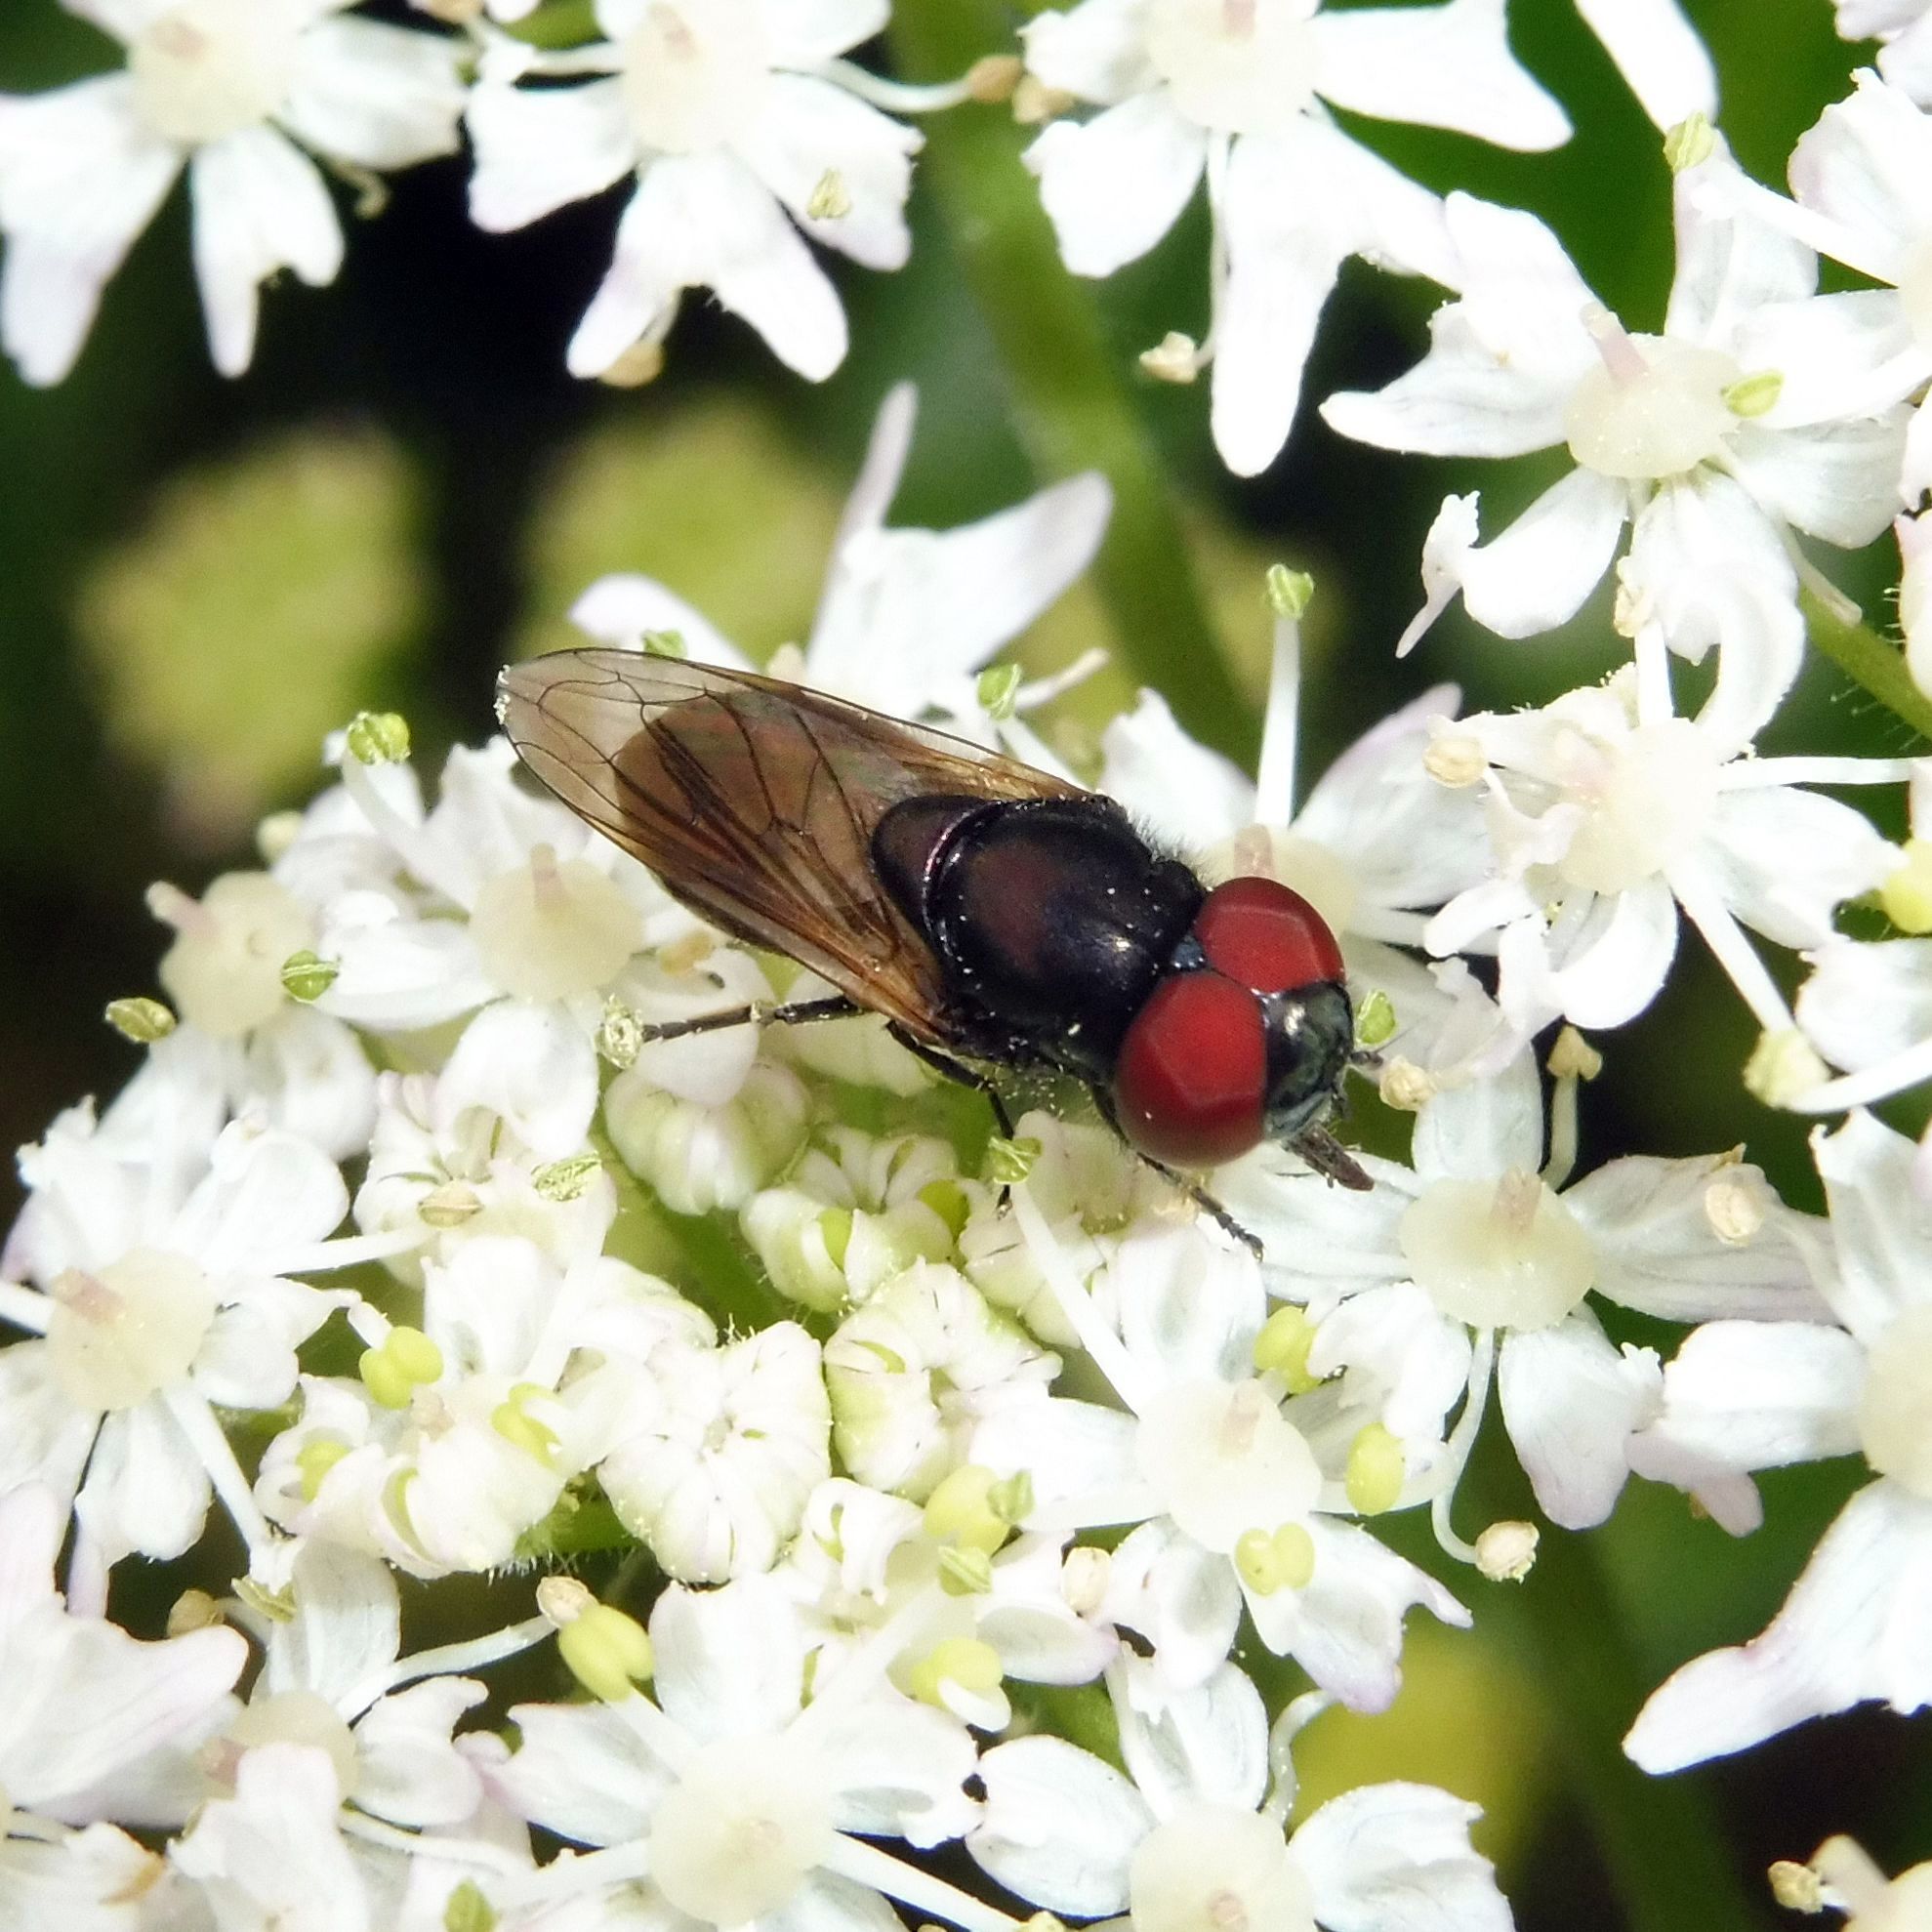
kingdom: Animalia
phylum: Arthropoda
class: Insecta
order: Diptera
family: Syrphidae
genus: Chrysogaster
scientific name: Chrysogaster cemiteriorum
